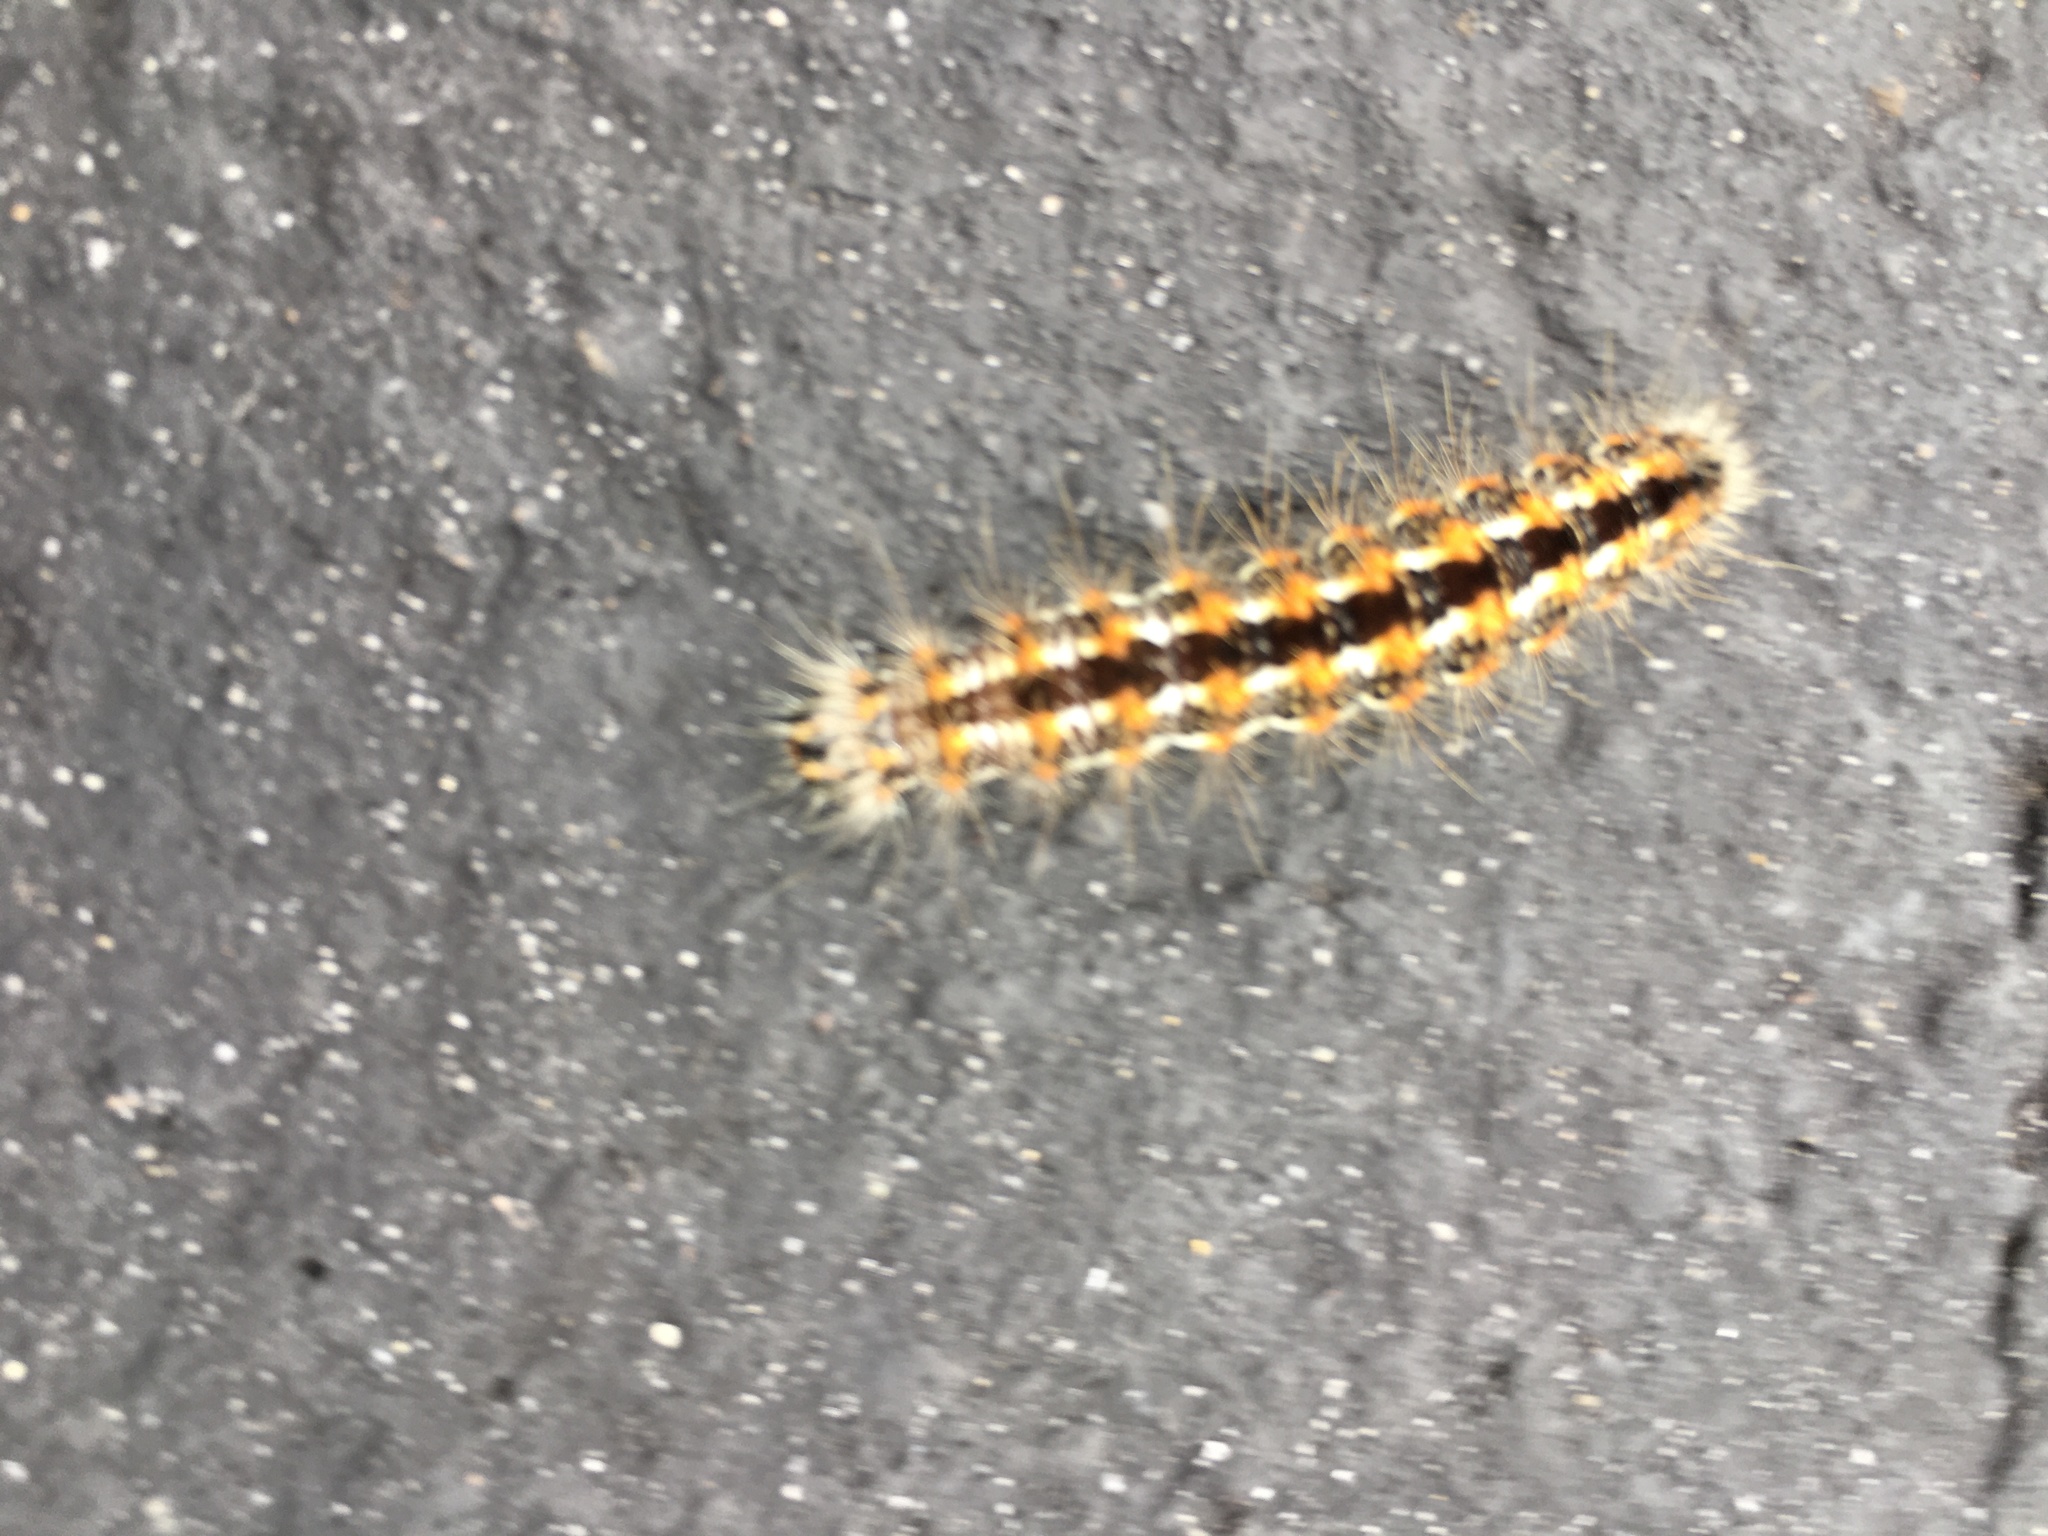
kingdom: Animalia
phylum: Arthropoda
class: Insecta
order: Lepidoptera
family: Noctuidae
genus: Acronicta
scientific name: Acronicta insularis
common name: Henry's marsh moth
